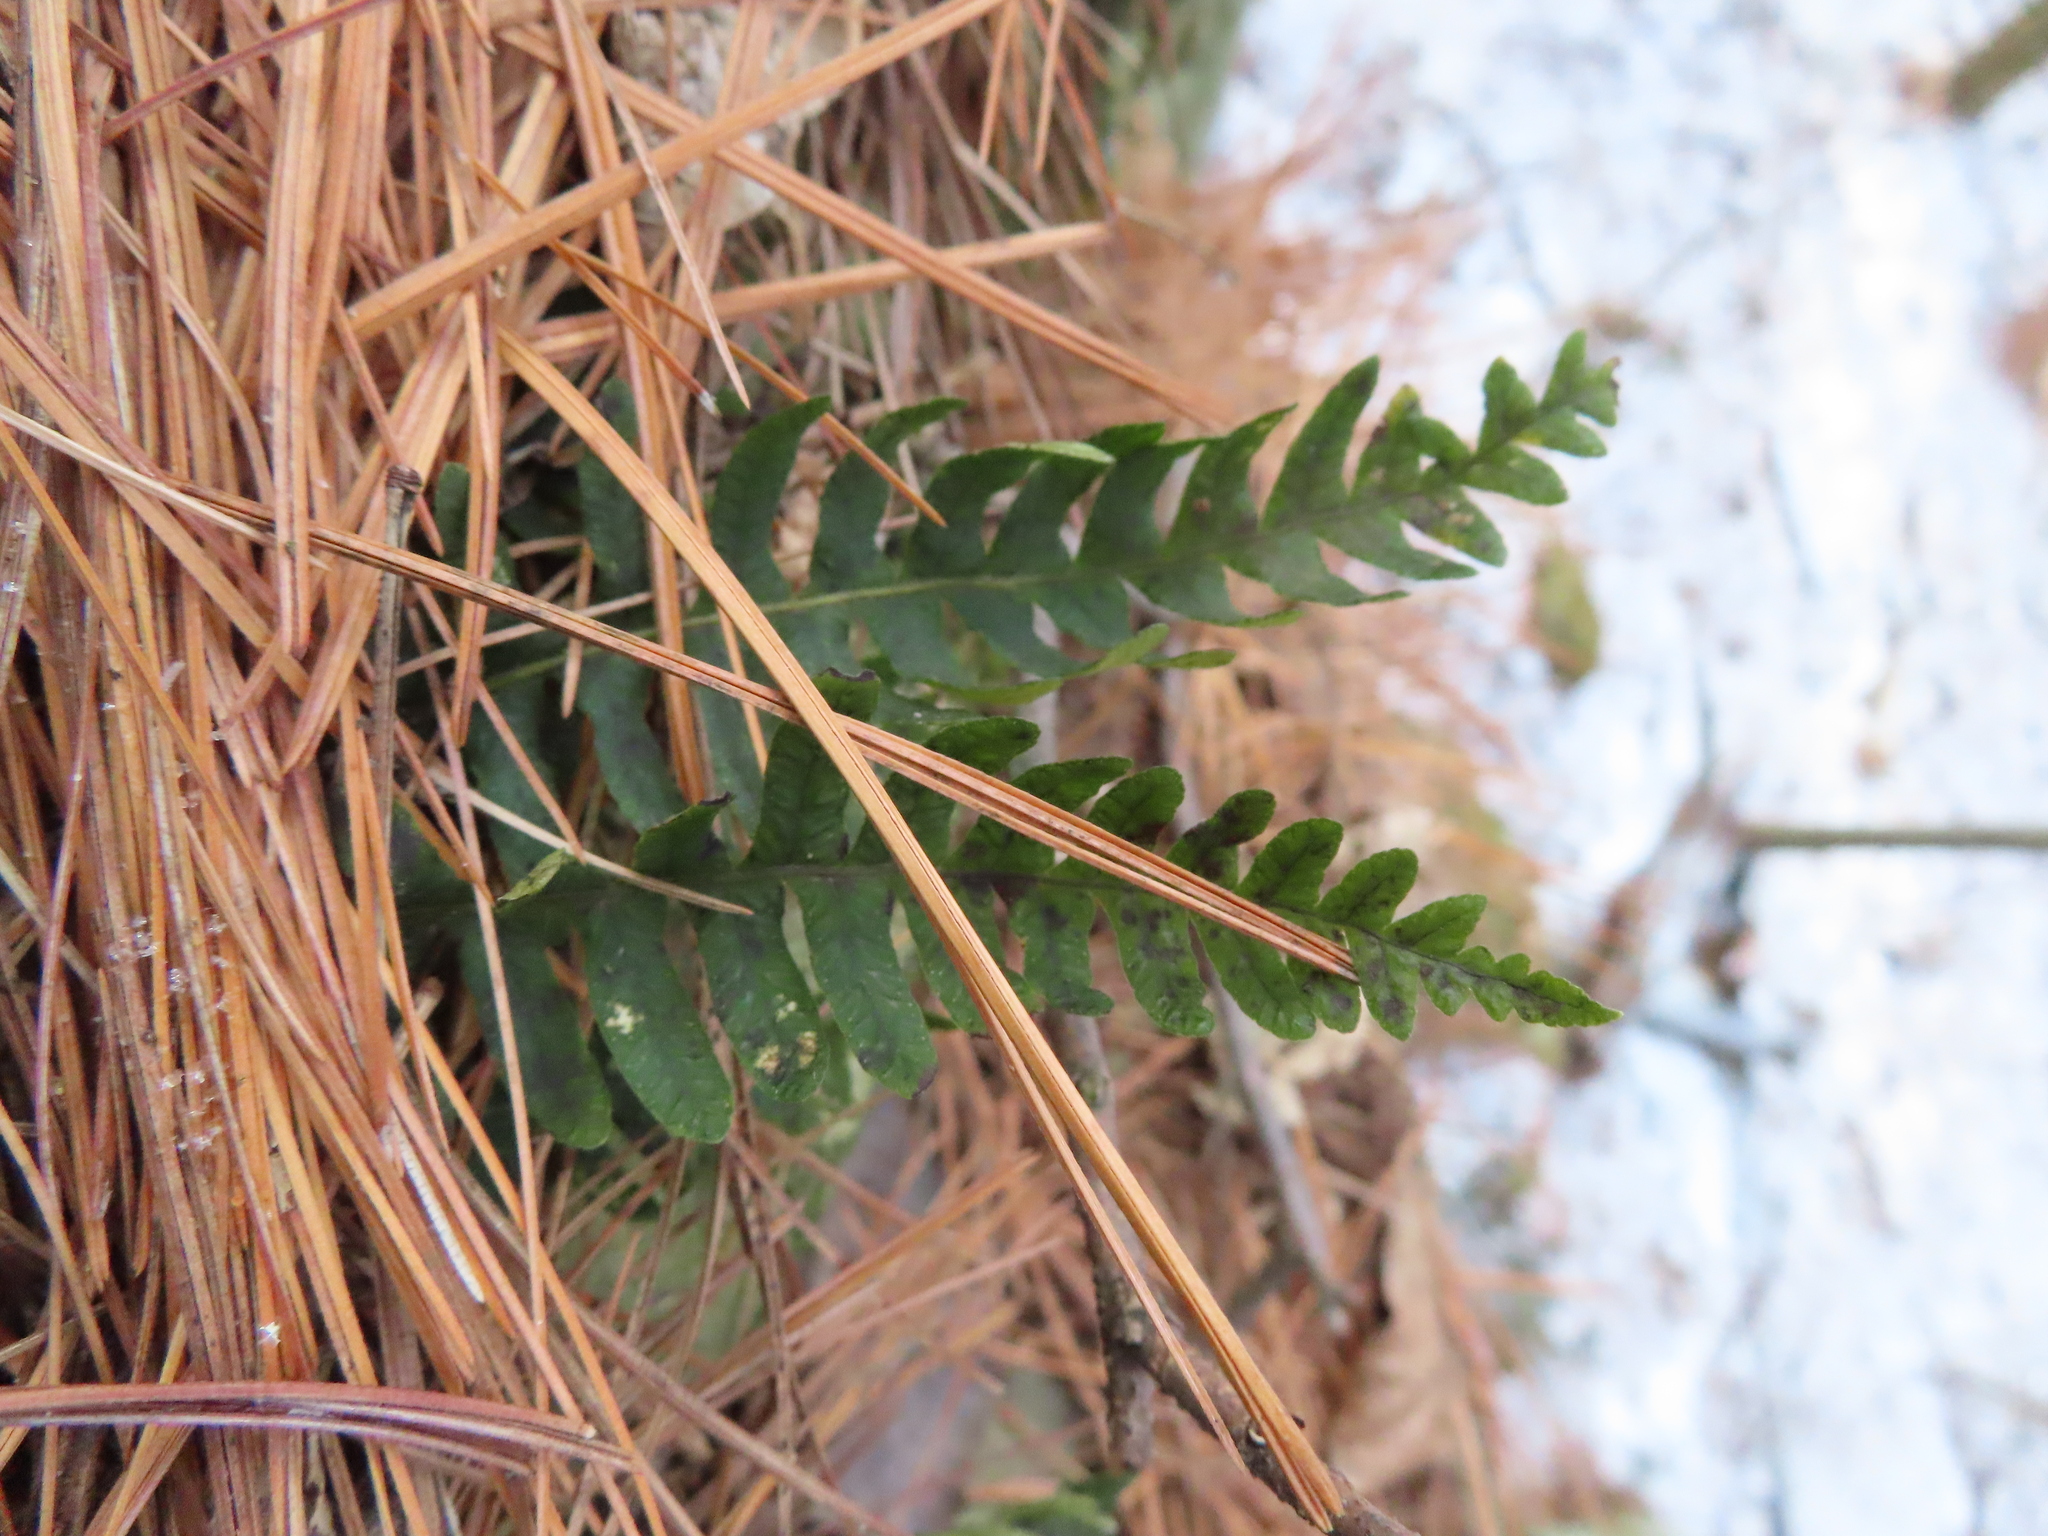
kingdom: Plantae
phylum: Tracheophyta
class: Polypodiopsida
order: Polypodiales
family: Polypodiaceae
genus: Polypodium
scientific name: Polypodium virginianum
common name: American wall fern
